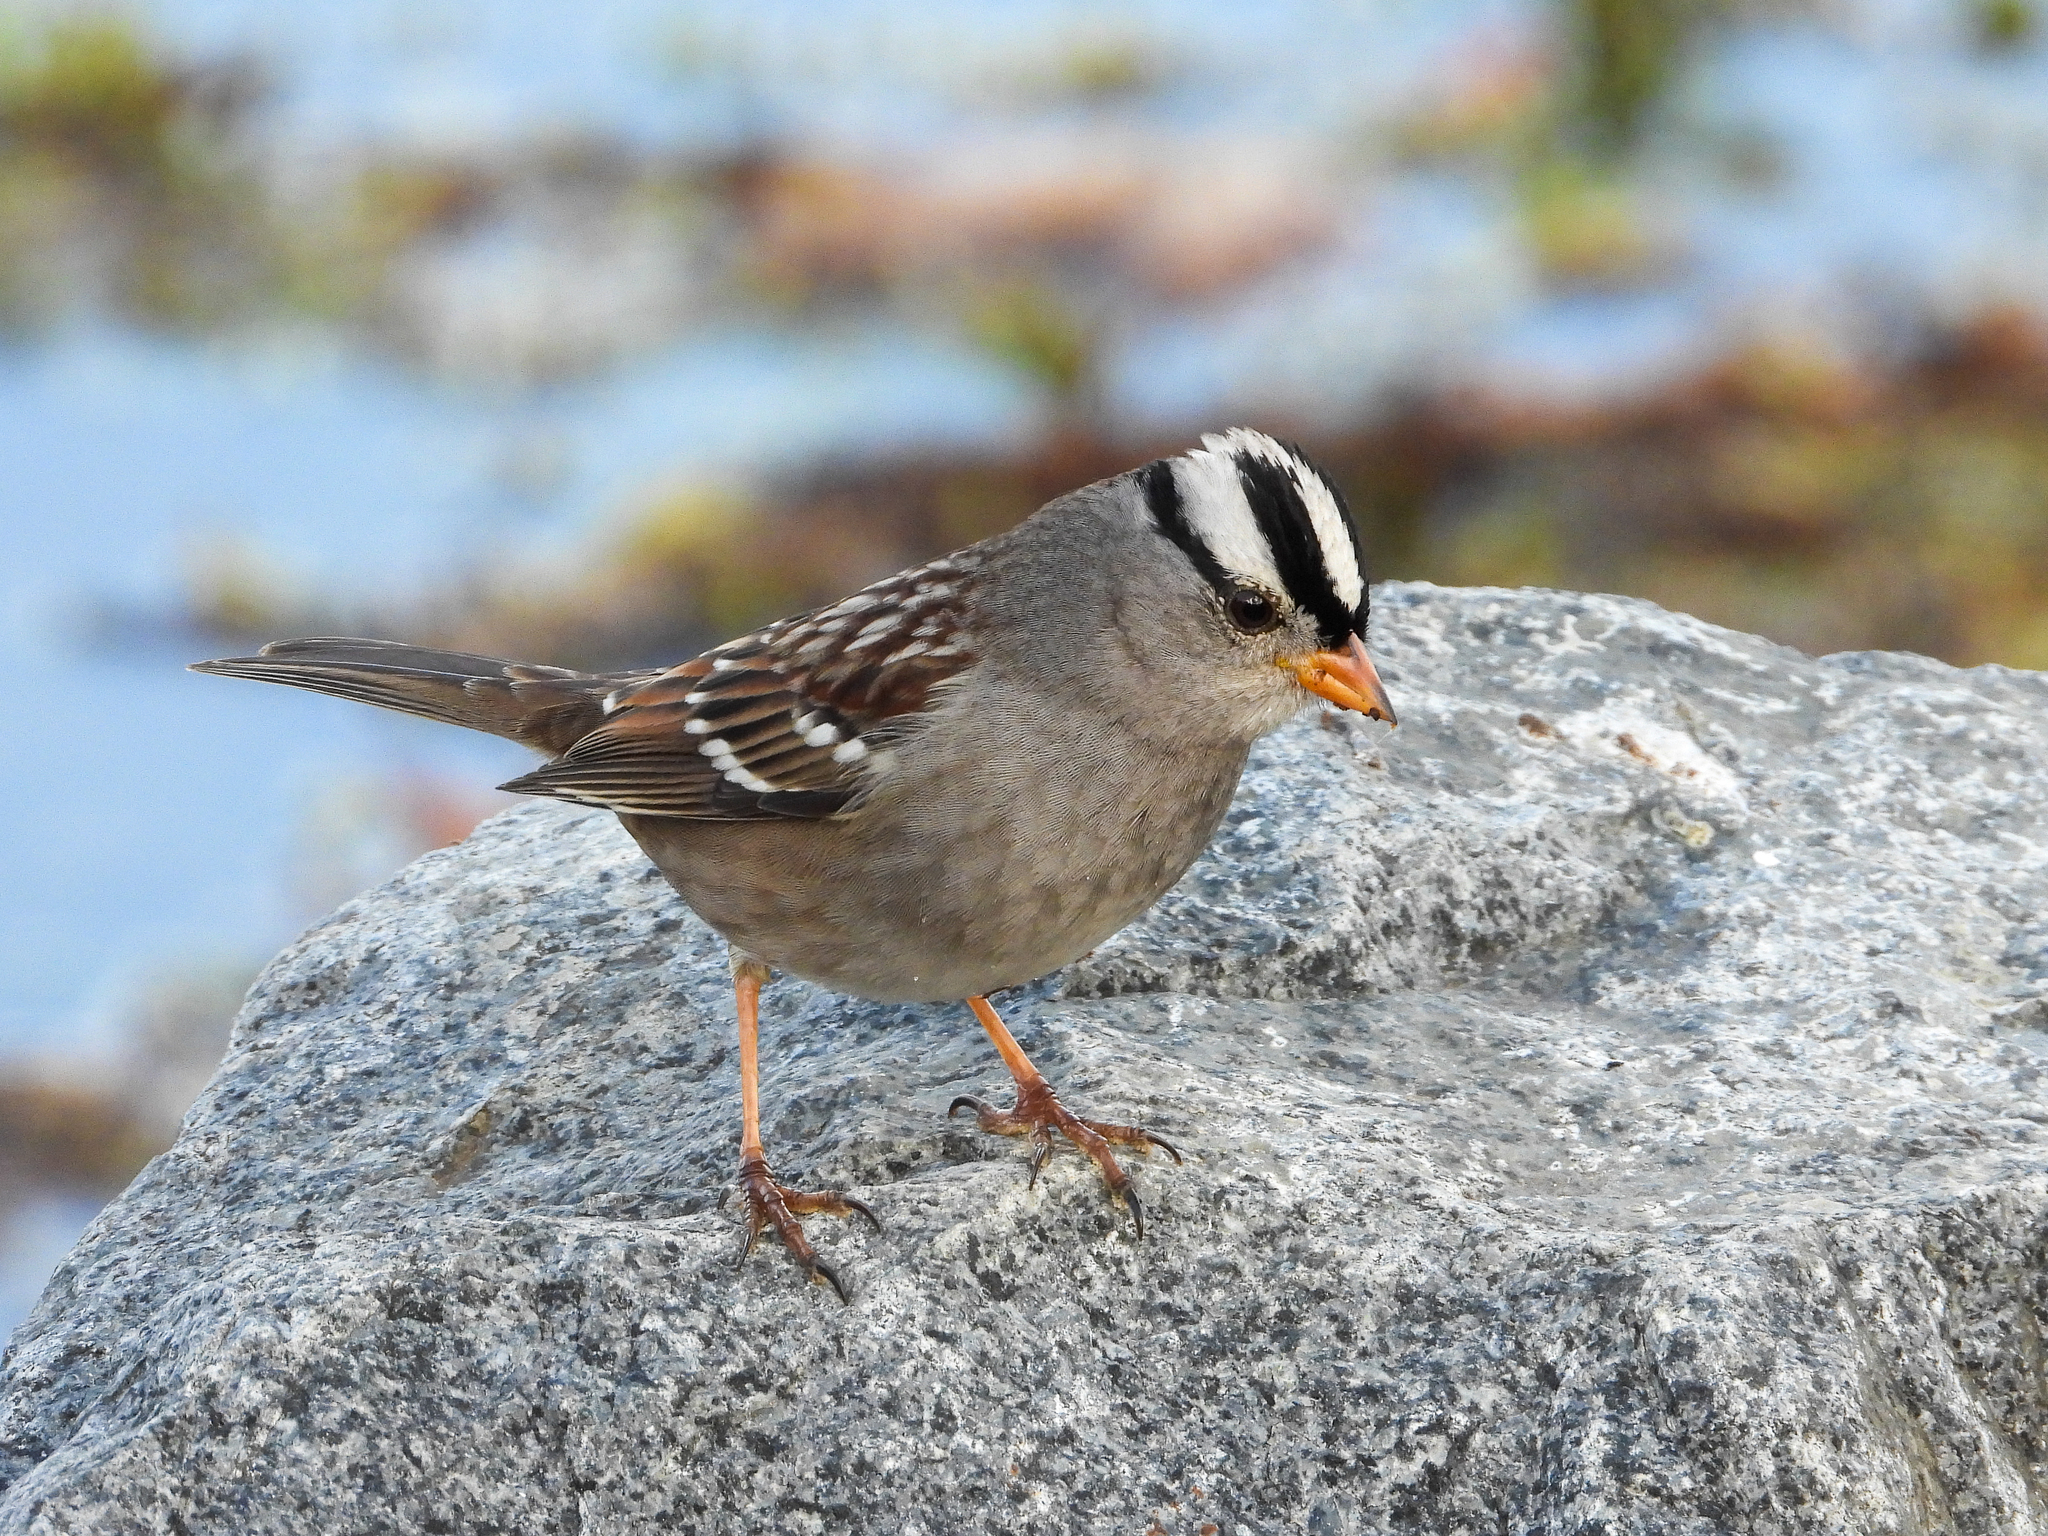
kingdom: Animalia
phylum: Chordata
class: Aves
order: Passeriformes
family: Passerellidae
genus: Zonotrichia
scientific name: Zonotrichia leucophrys
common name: White-crowned sparrow
